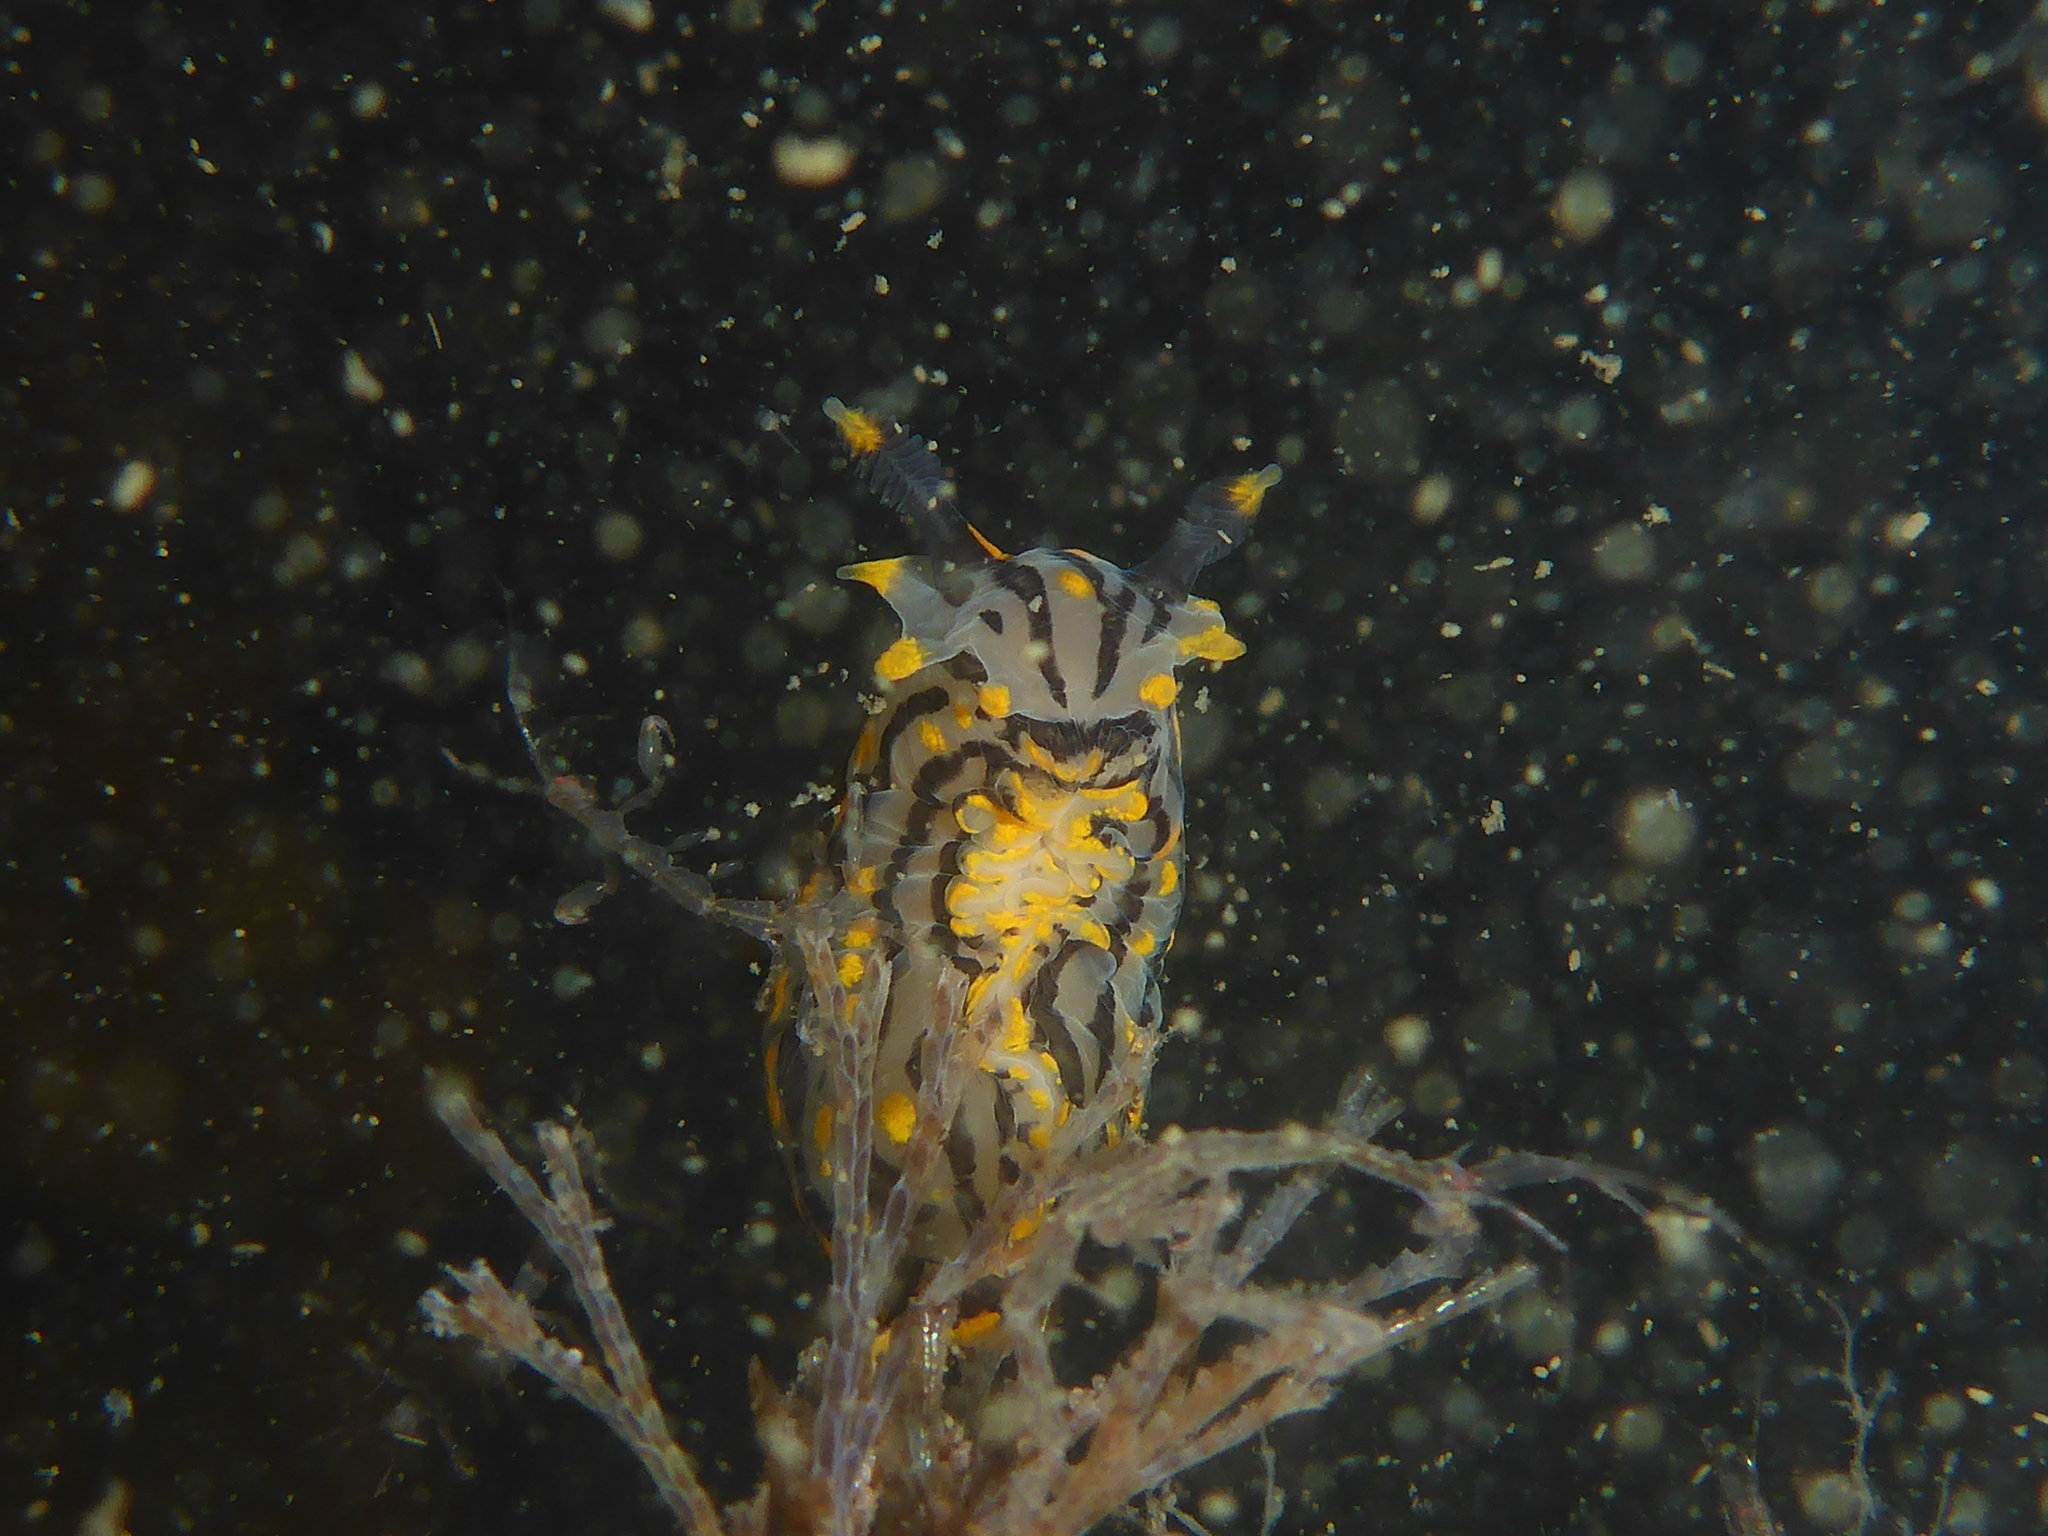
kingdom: Animalia
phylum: Mollusca
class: Gastropoda
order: Nudibranchia
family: Polyceridae
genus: Polycera
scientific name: Polycera atra
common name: Orange-spike polycera
